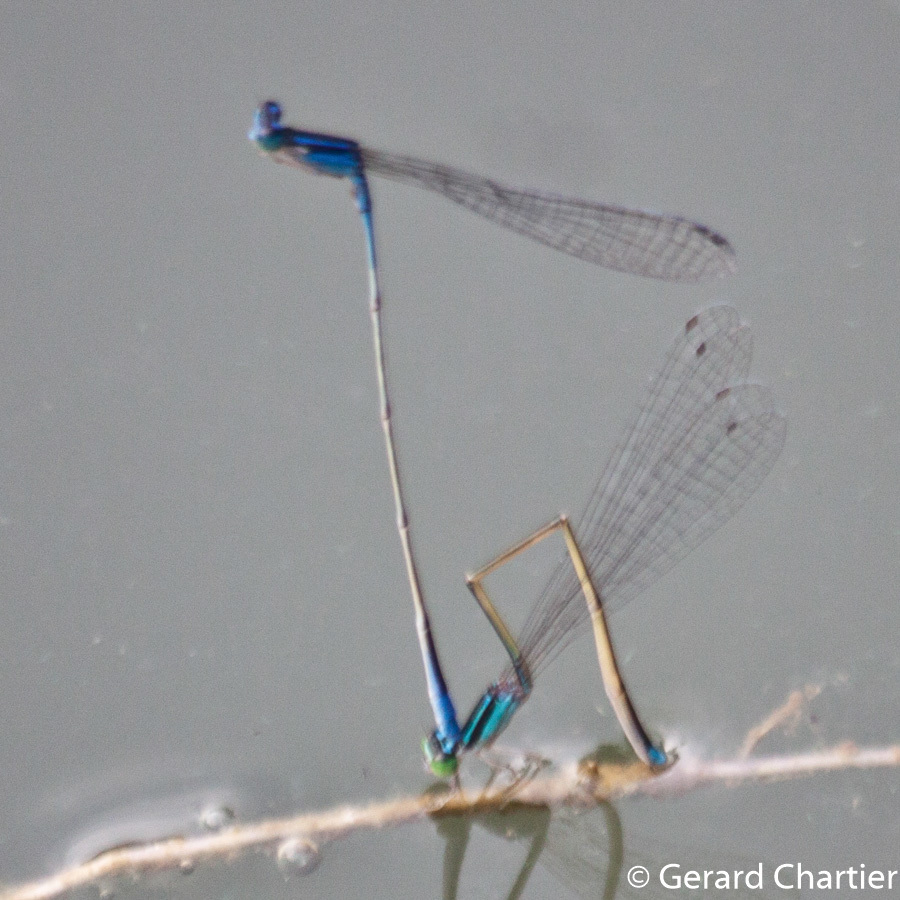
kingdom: Animalia
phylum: Arthropoda
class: Insecta
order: Odonata
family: Coenagrionidae
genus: Aciagrion
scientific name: Aciagrion hisopa
